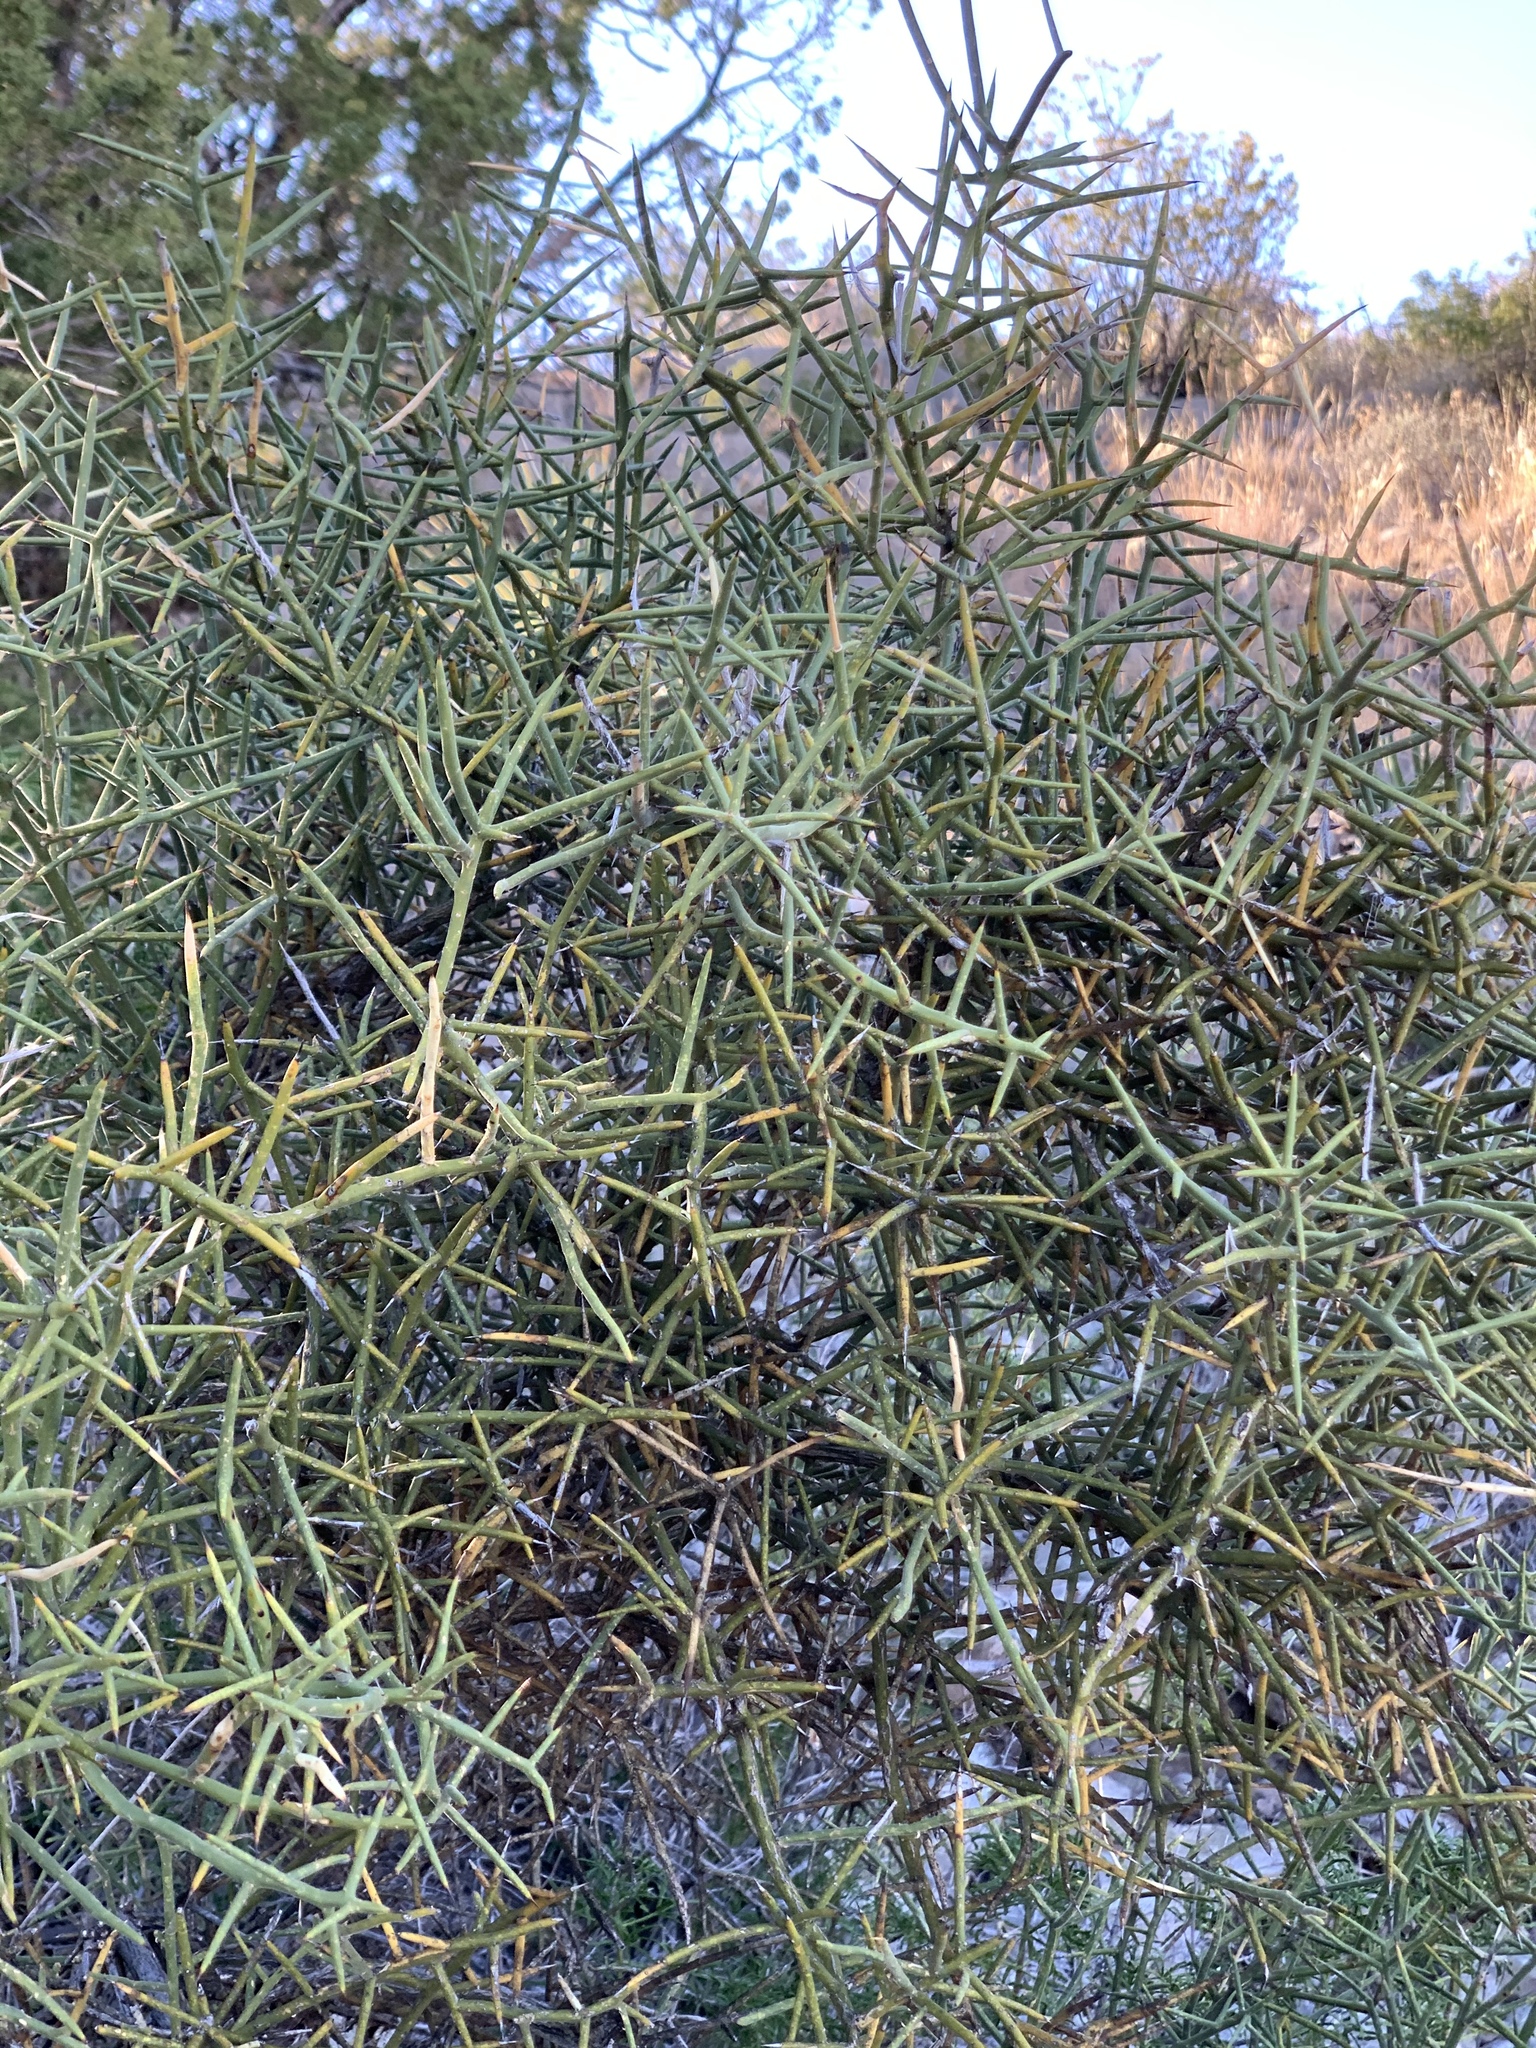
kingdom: Plantae
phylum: Tracheophyta
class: Magnoliopsida
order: Brassicales
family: Koeberliniaceae
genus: Koeberlinia
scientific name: Koeberlinia spinosa
